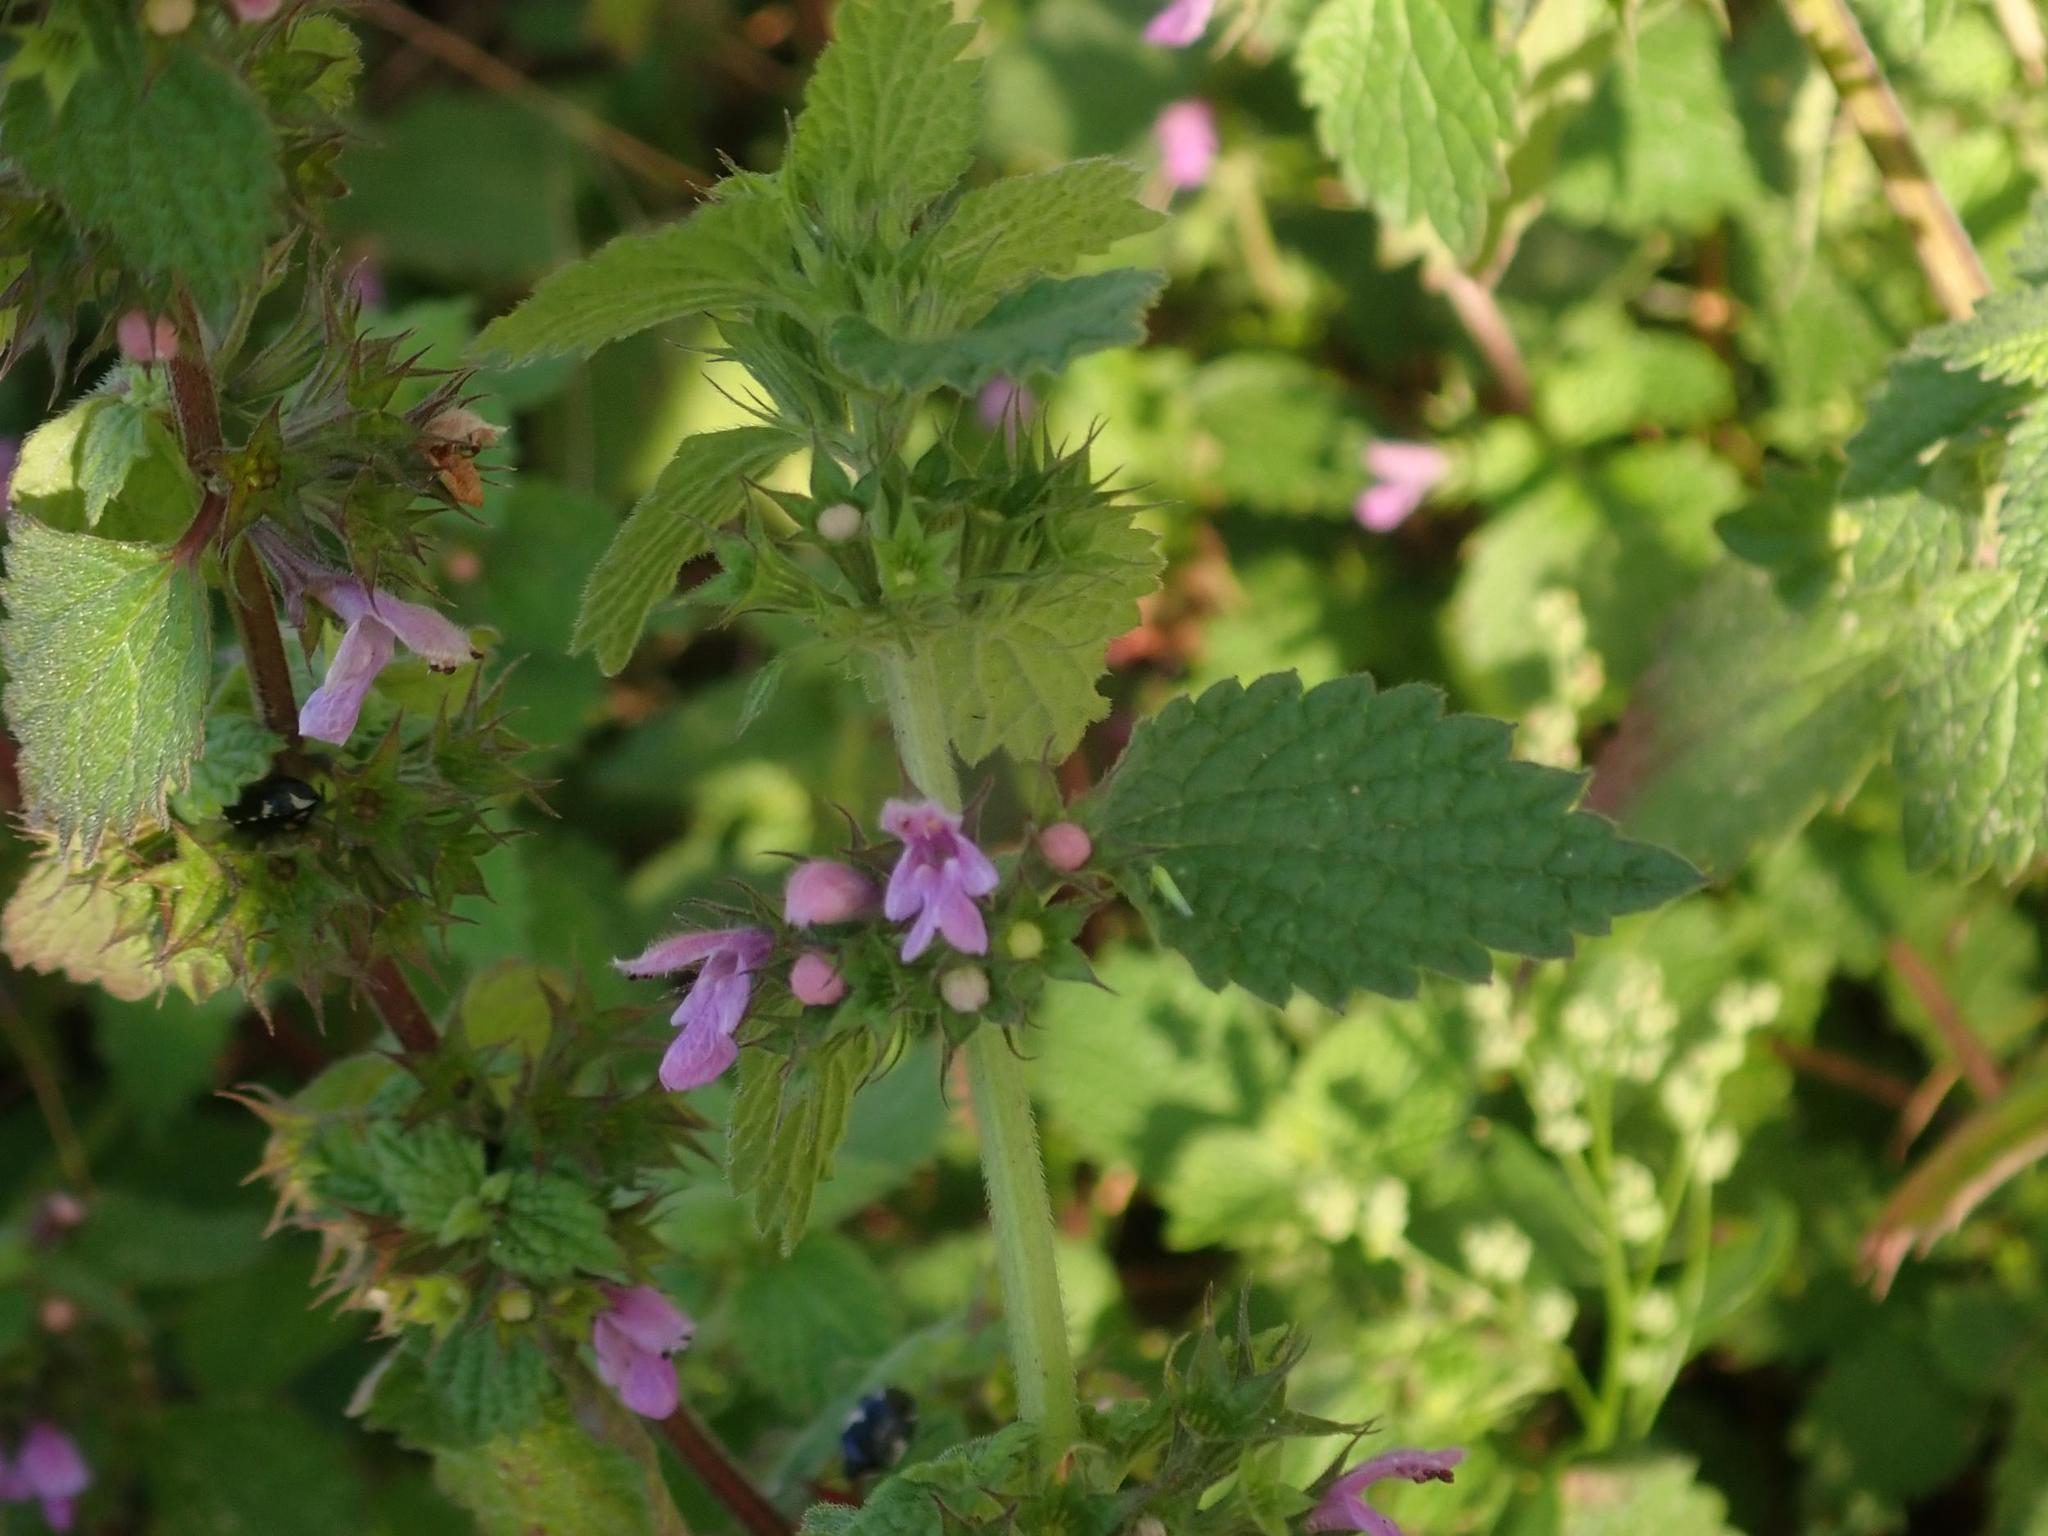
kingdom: Plantae
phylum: Tracheophyta
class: Magnoliopsida
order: Lamiales
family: Lamiaceae
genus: Ballota
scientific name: Ballota nigra
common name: Black horehound
